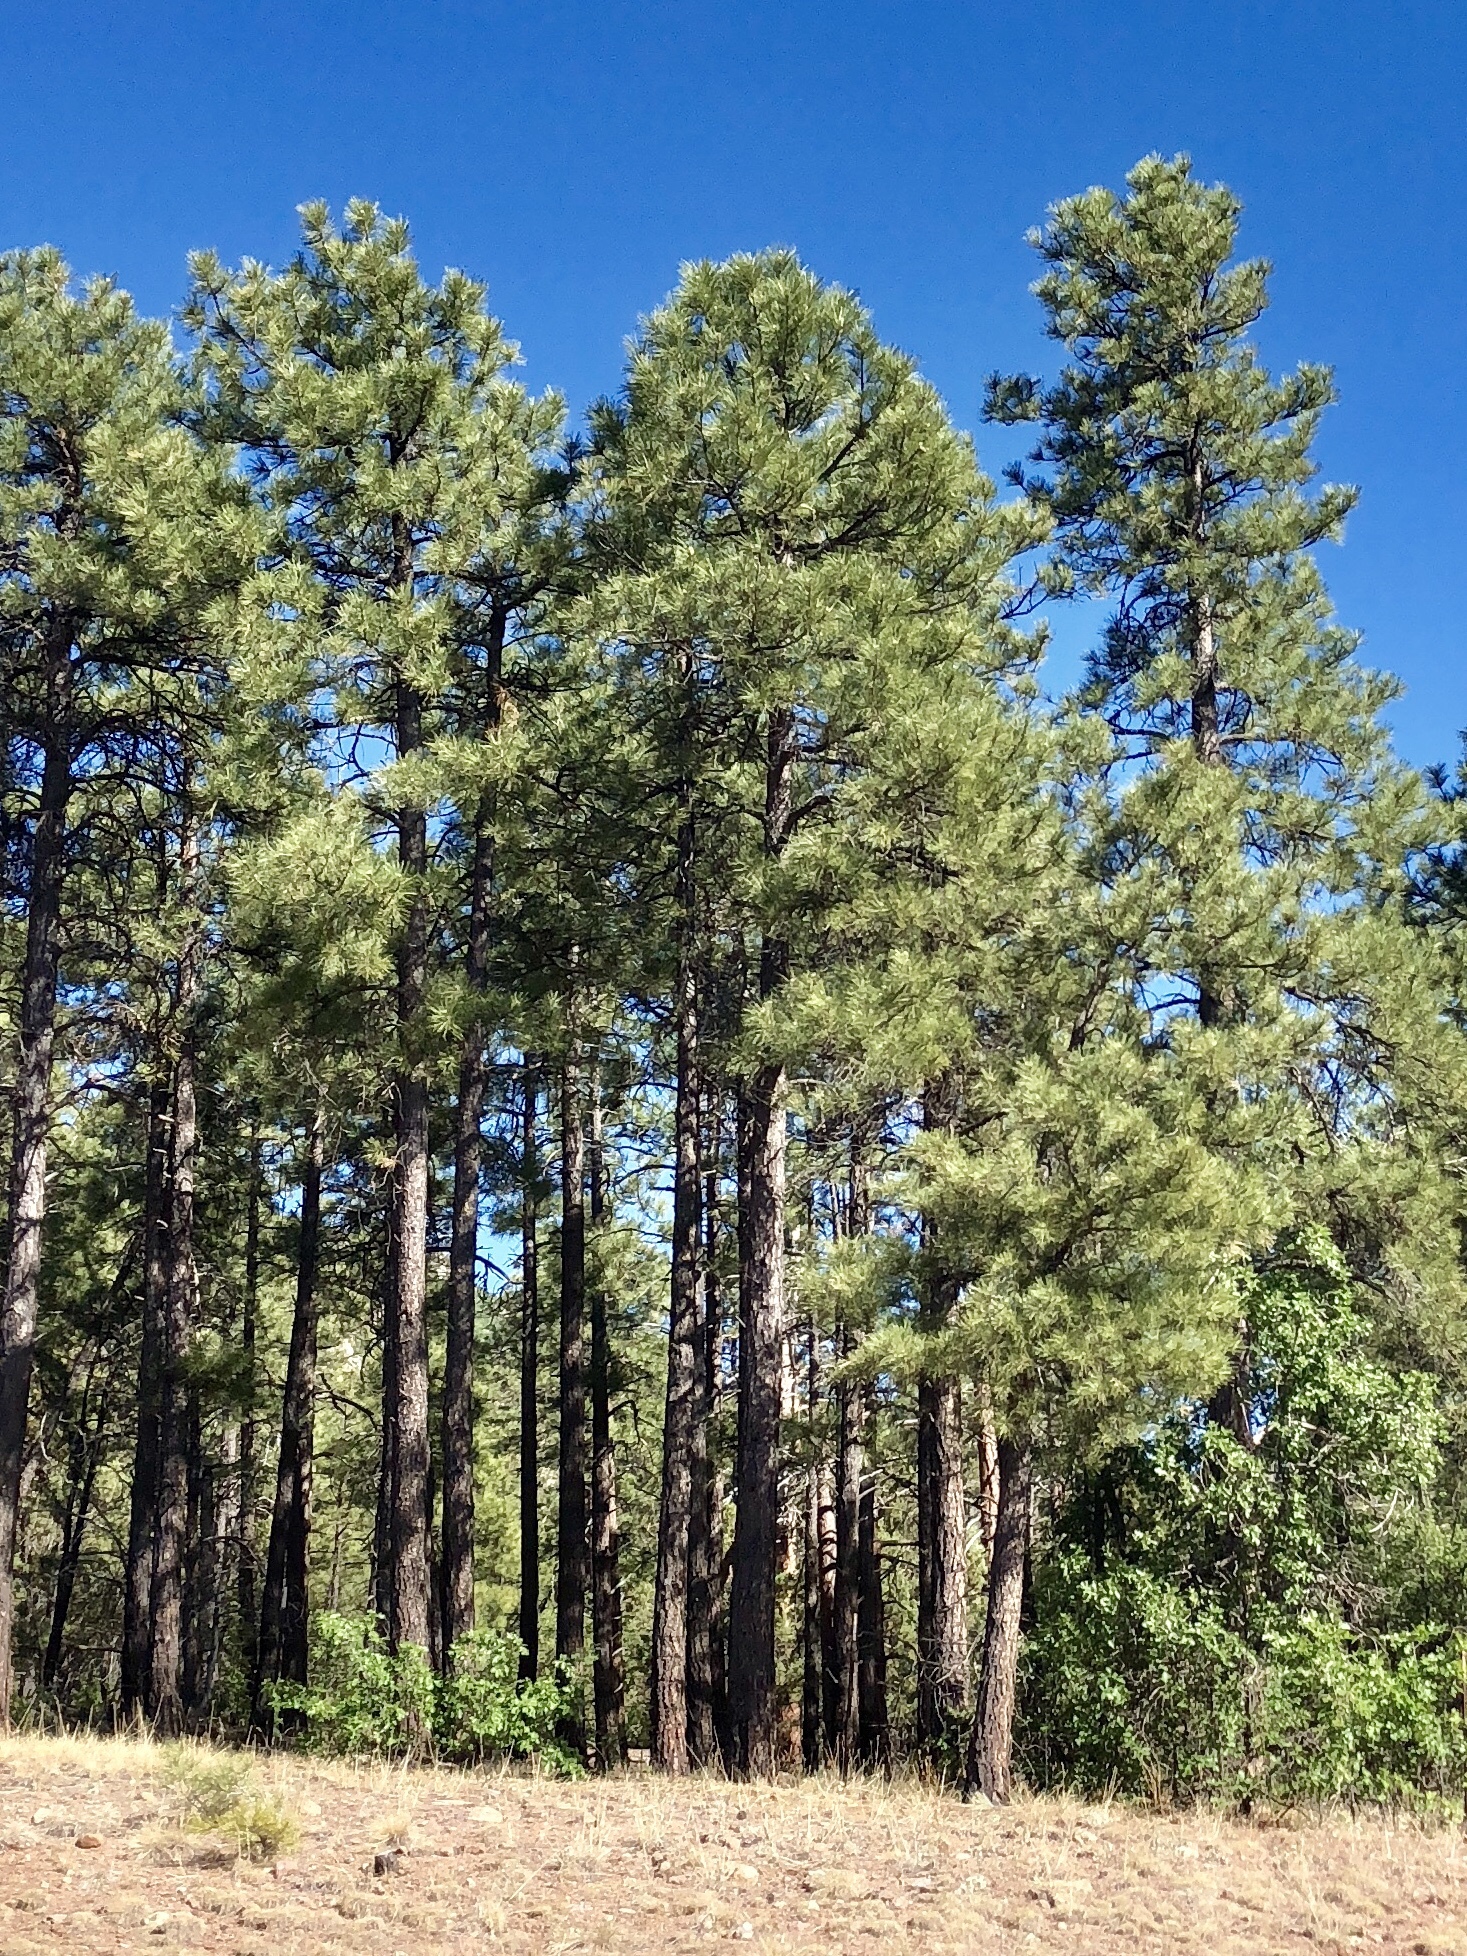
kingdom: Plantae
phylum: Tracheophyta
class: Pinopsida
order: Pinales
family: Pinaceae
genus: Pinus
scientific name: Pinus ponderosa
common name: Western yellow-pine
